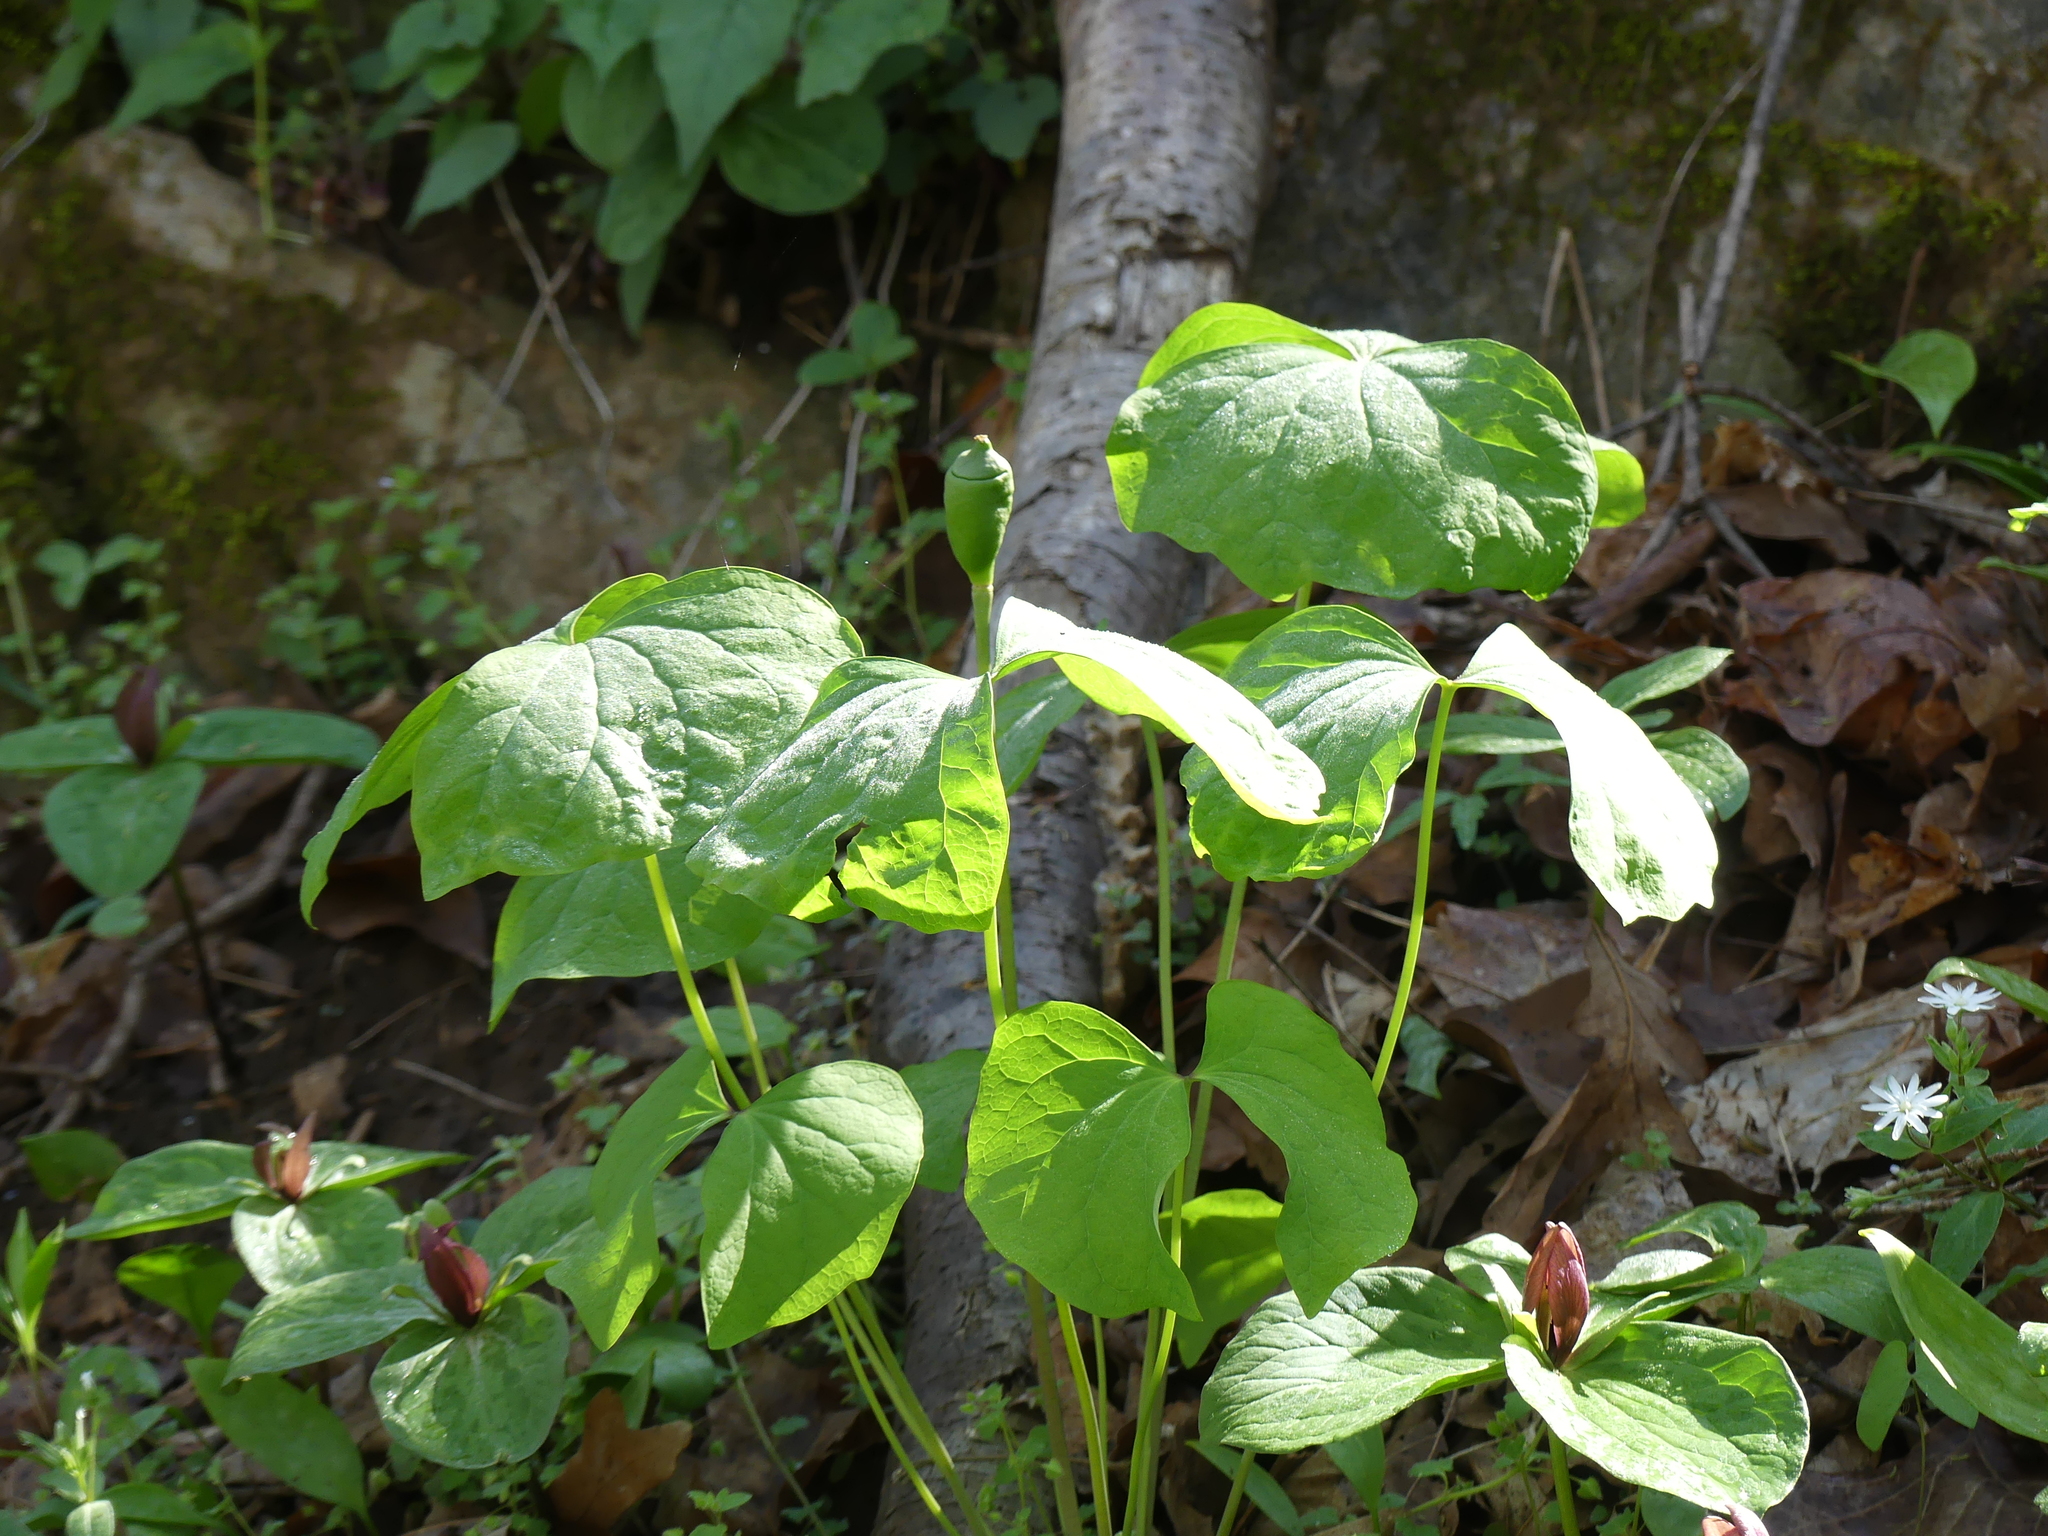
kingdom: Plantae
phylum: Tracheophyta
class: Magnoliopsida
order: Ranunculales
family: Berberidaceae
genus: Jeffersonia
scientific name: Jeffersonia diphylla
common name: Rheumatism-root
